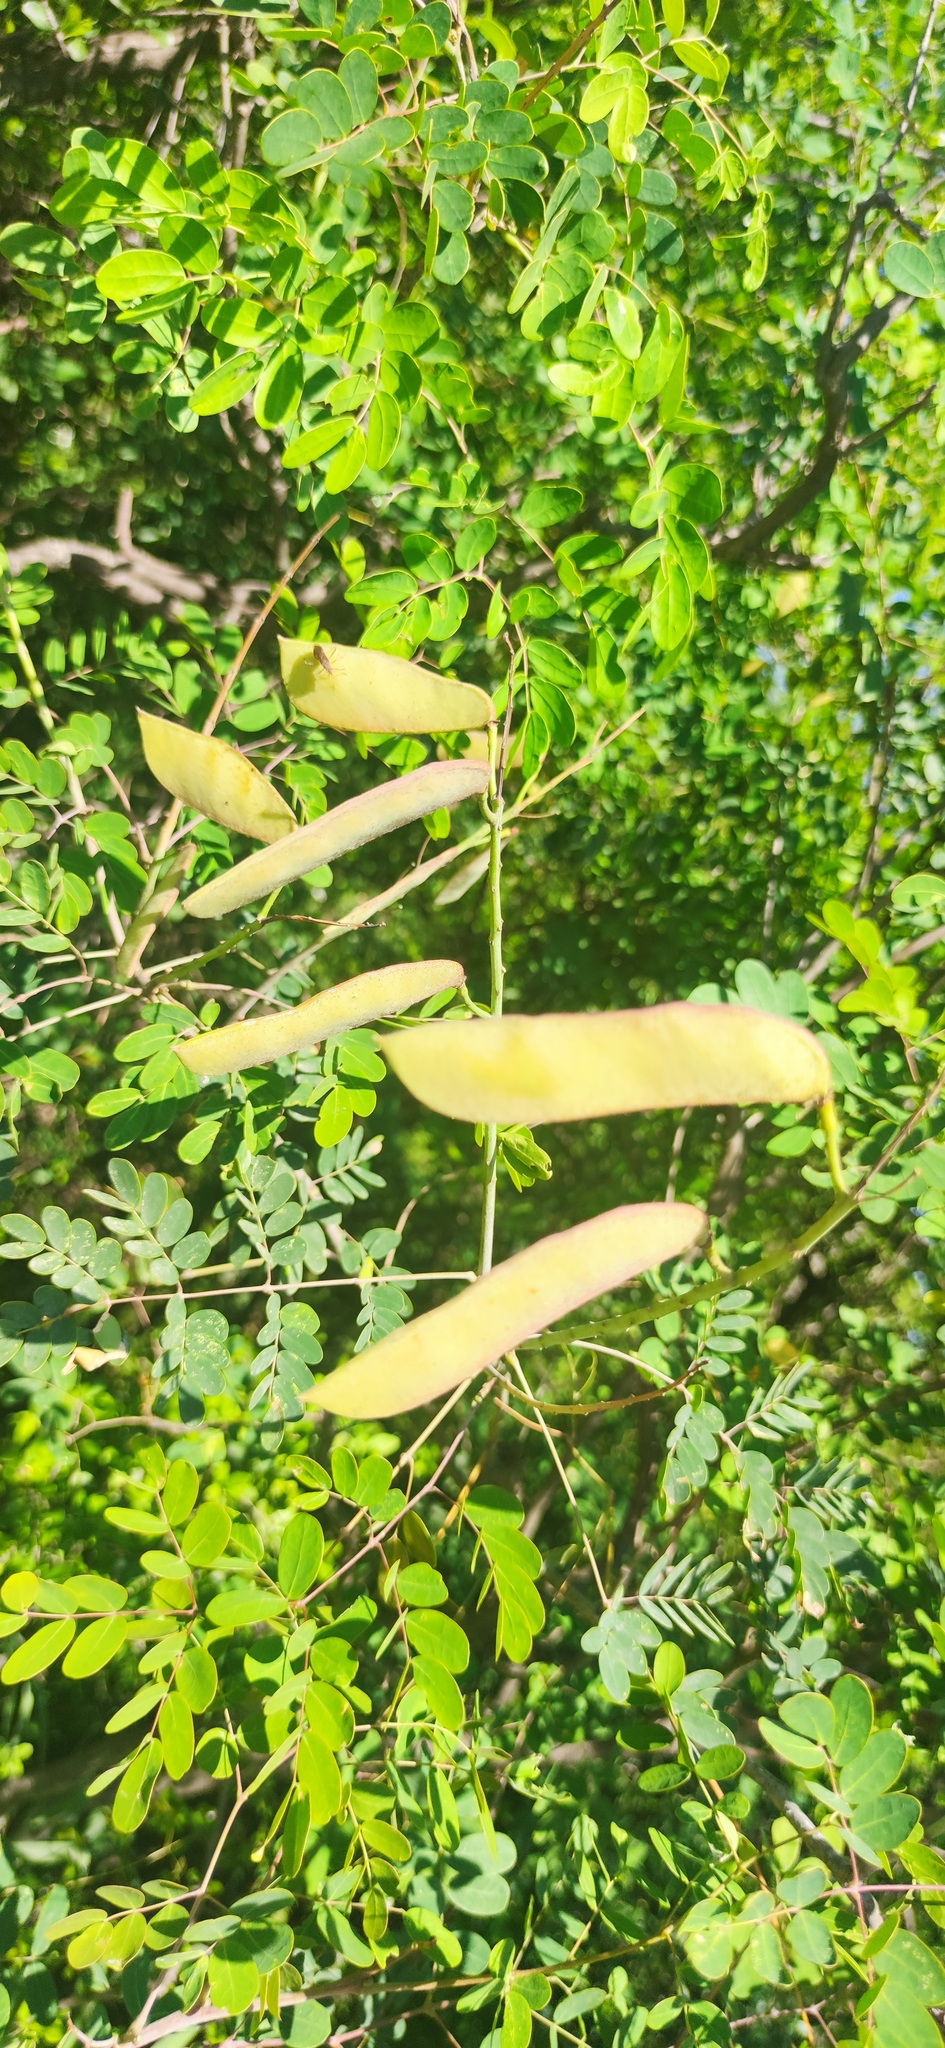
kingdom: Plantae
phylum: Tracheophyta
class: Magnoliopsida
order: Fabales
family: Fabaceae
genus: Erythrostemon
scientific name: Erythrostemon mexicanus
